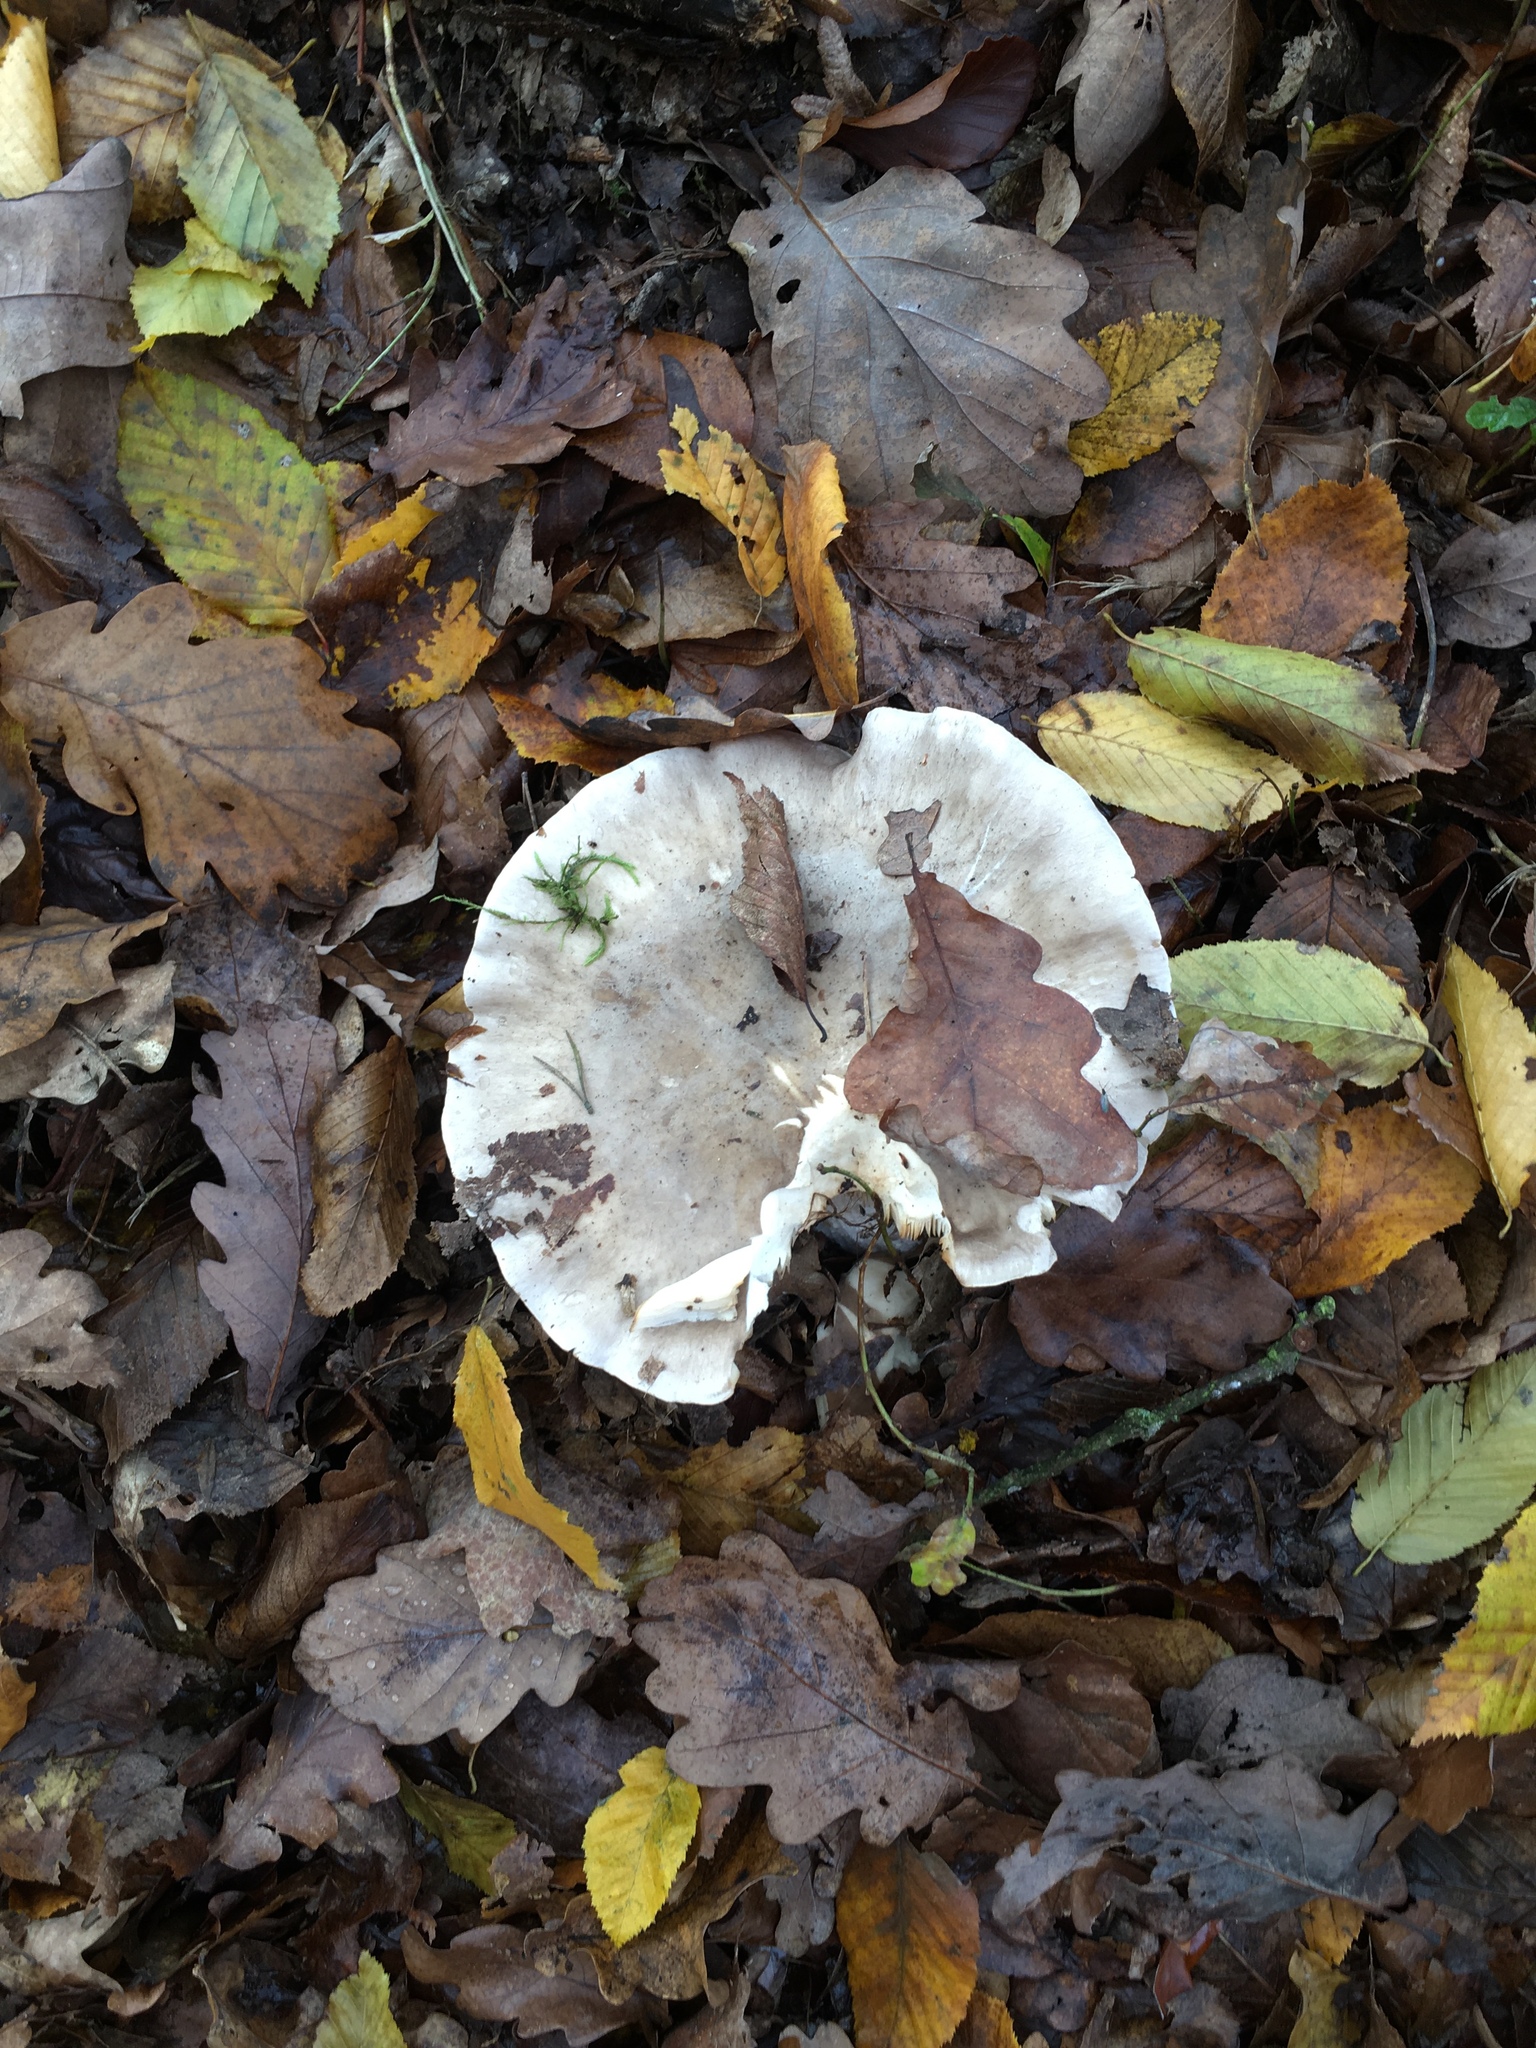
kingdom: Fungi
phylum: Basidiomycota
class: Agaricomycetes
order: Agaricales
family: Tricholomataceae
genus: Clitocybe
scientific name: Clitocybe nebularis
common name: Clouded agaric
